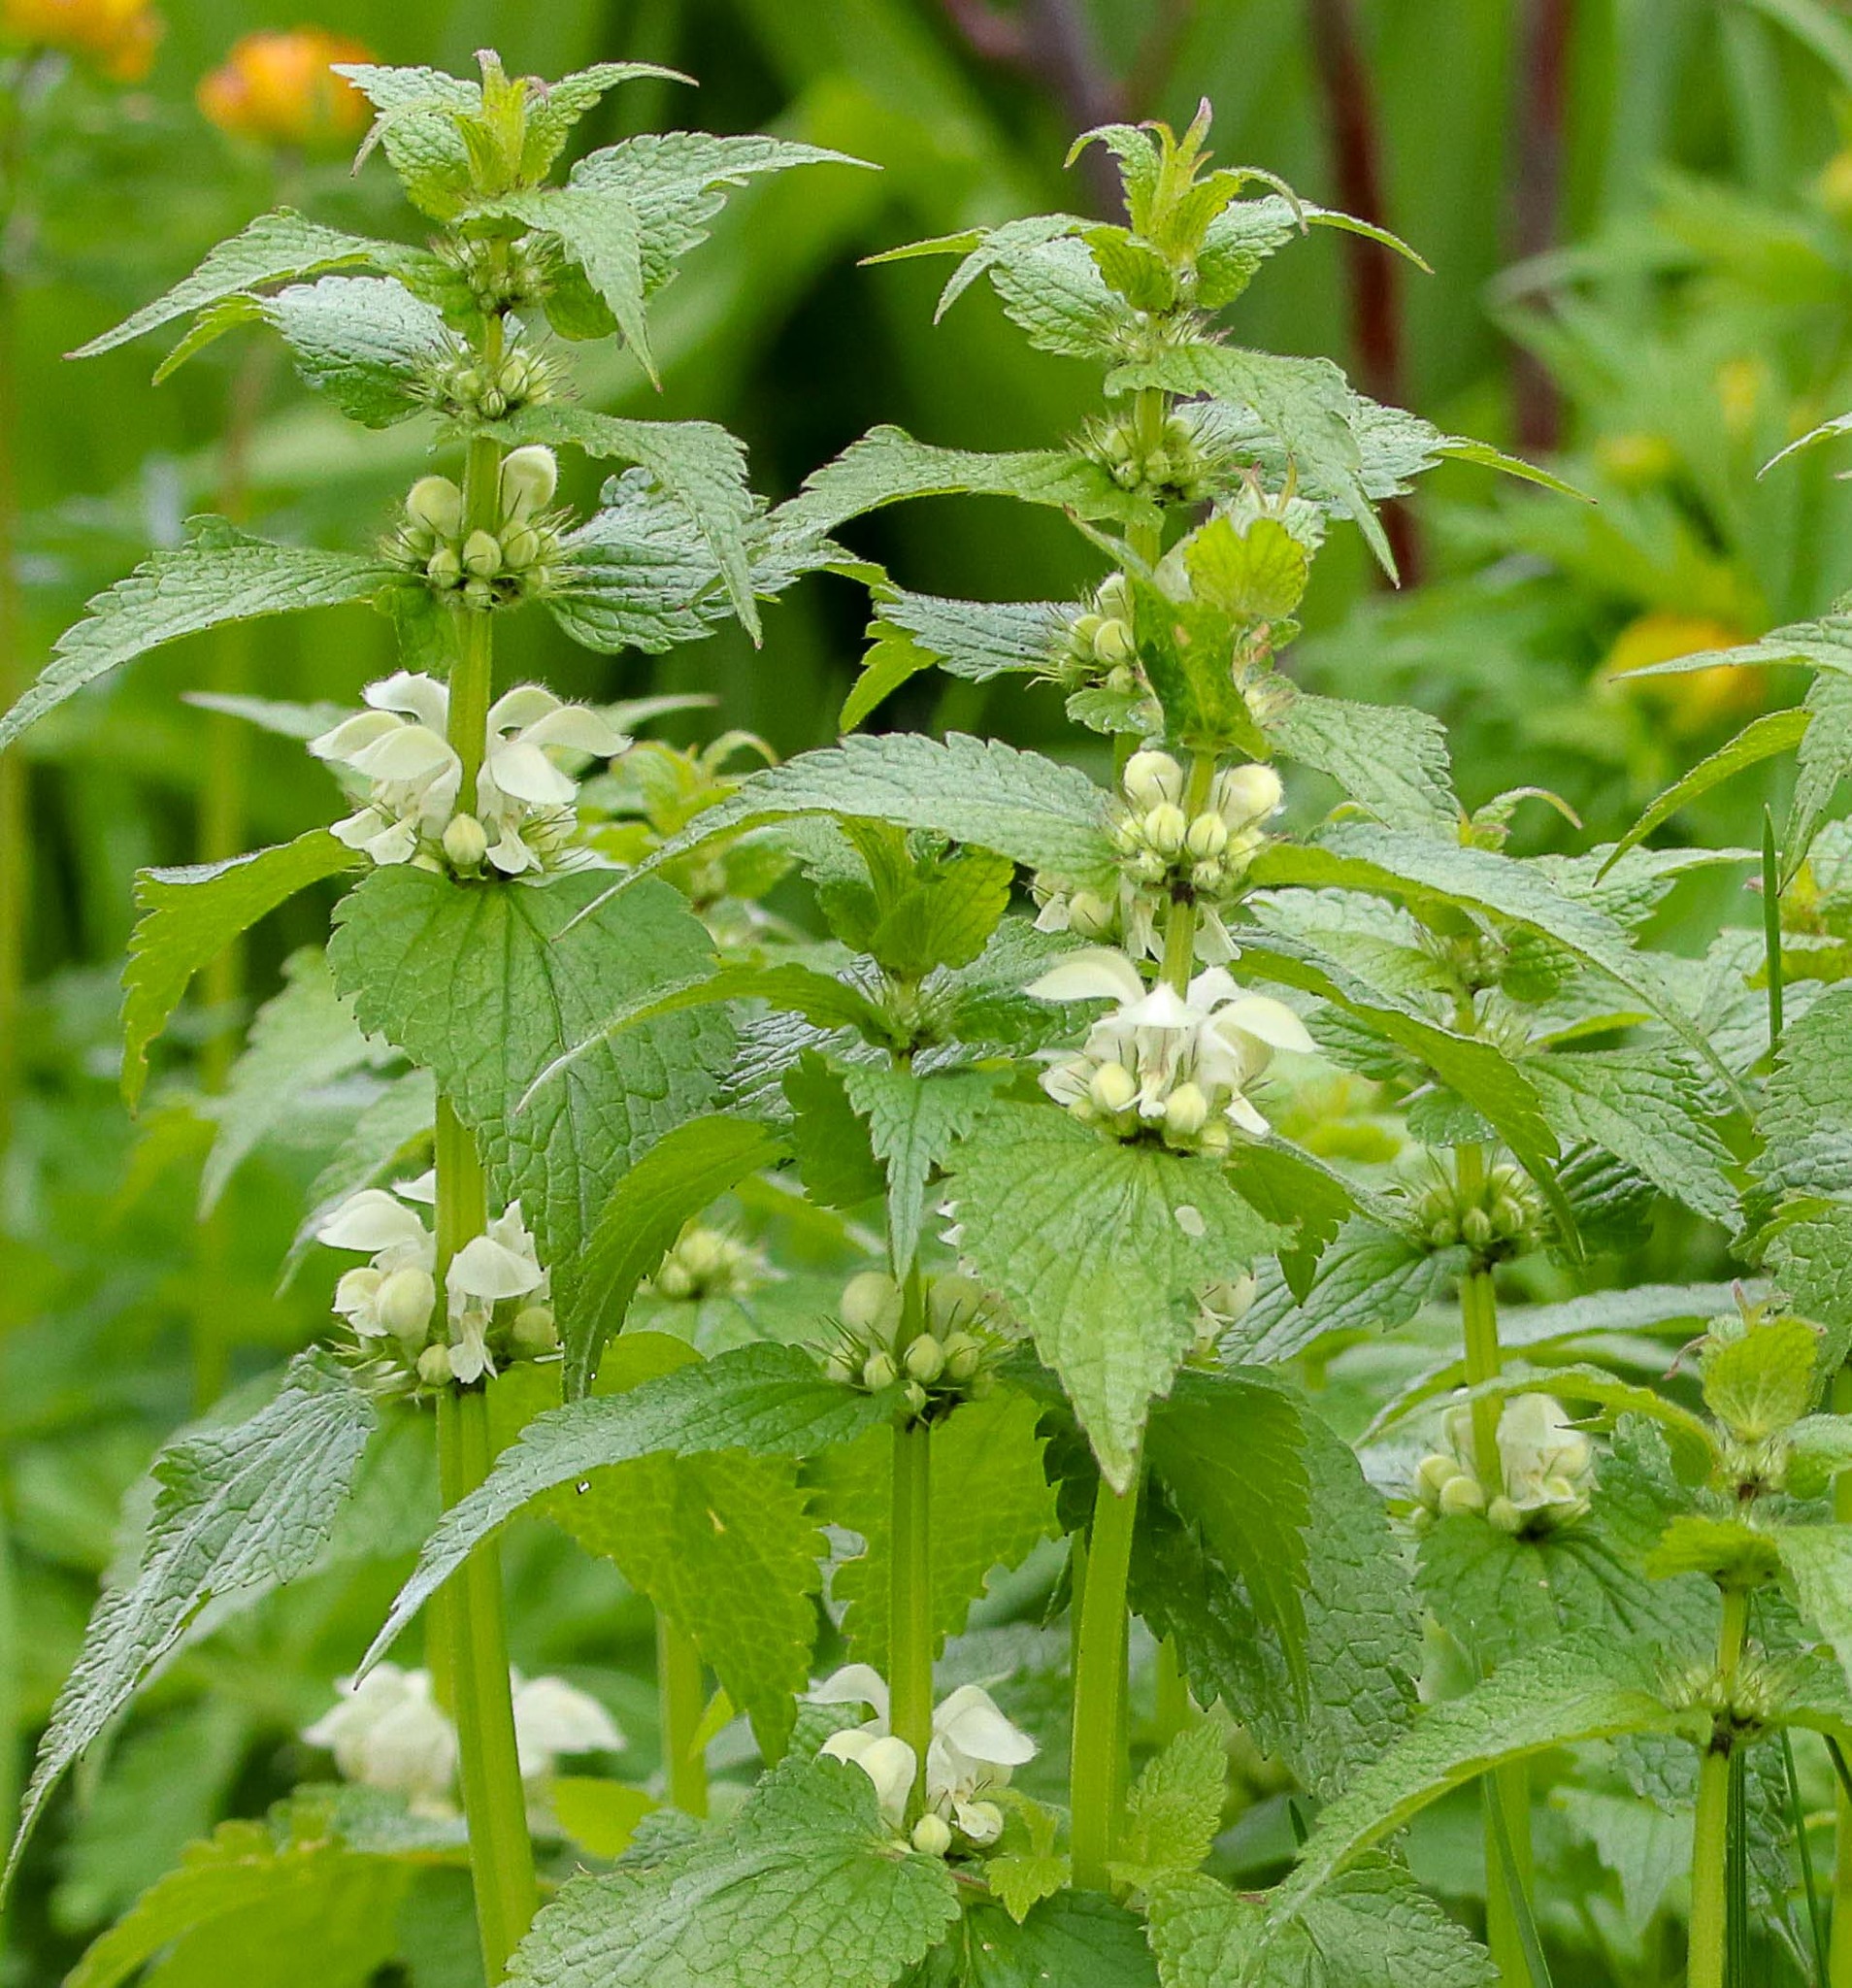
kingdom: Plantae
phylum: Tracheophyta
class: Magnoliopsida
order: Lamiales
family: Lamiaceae
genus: Lamium
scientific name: Lamium album
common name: White dead-nettle
